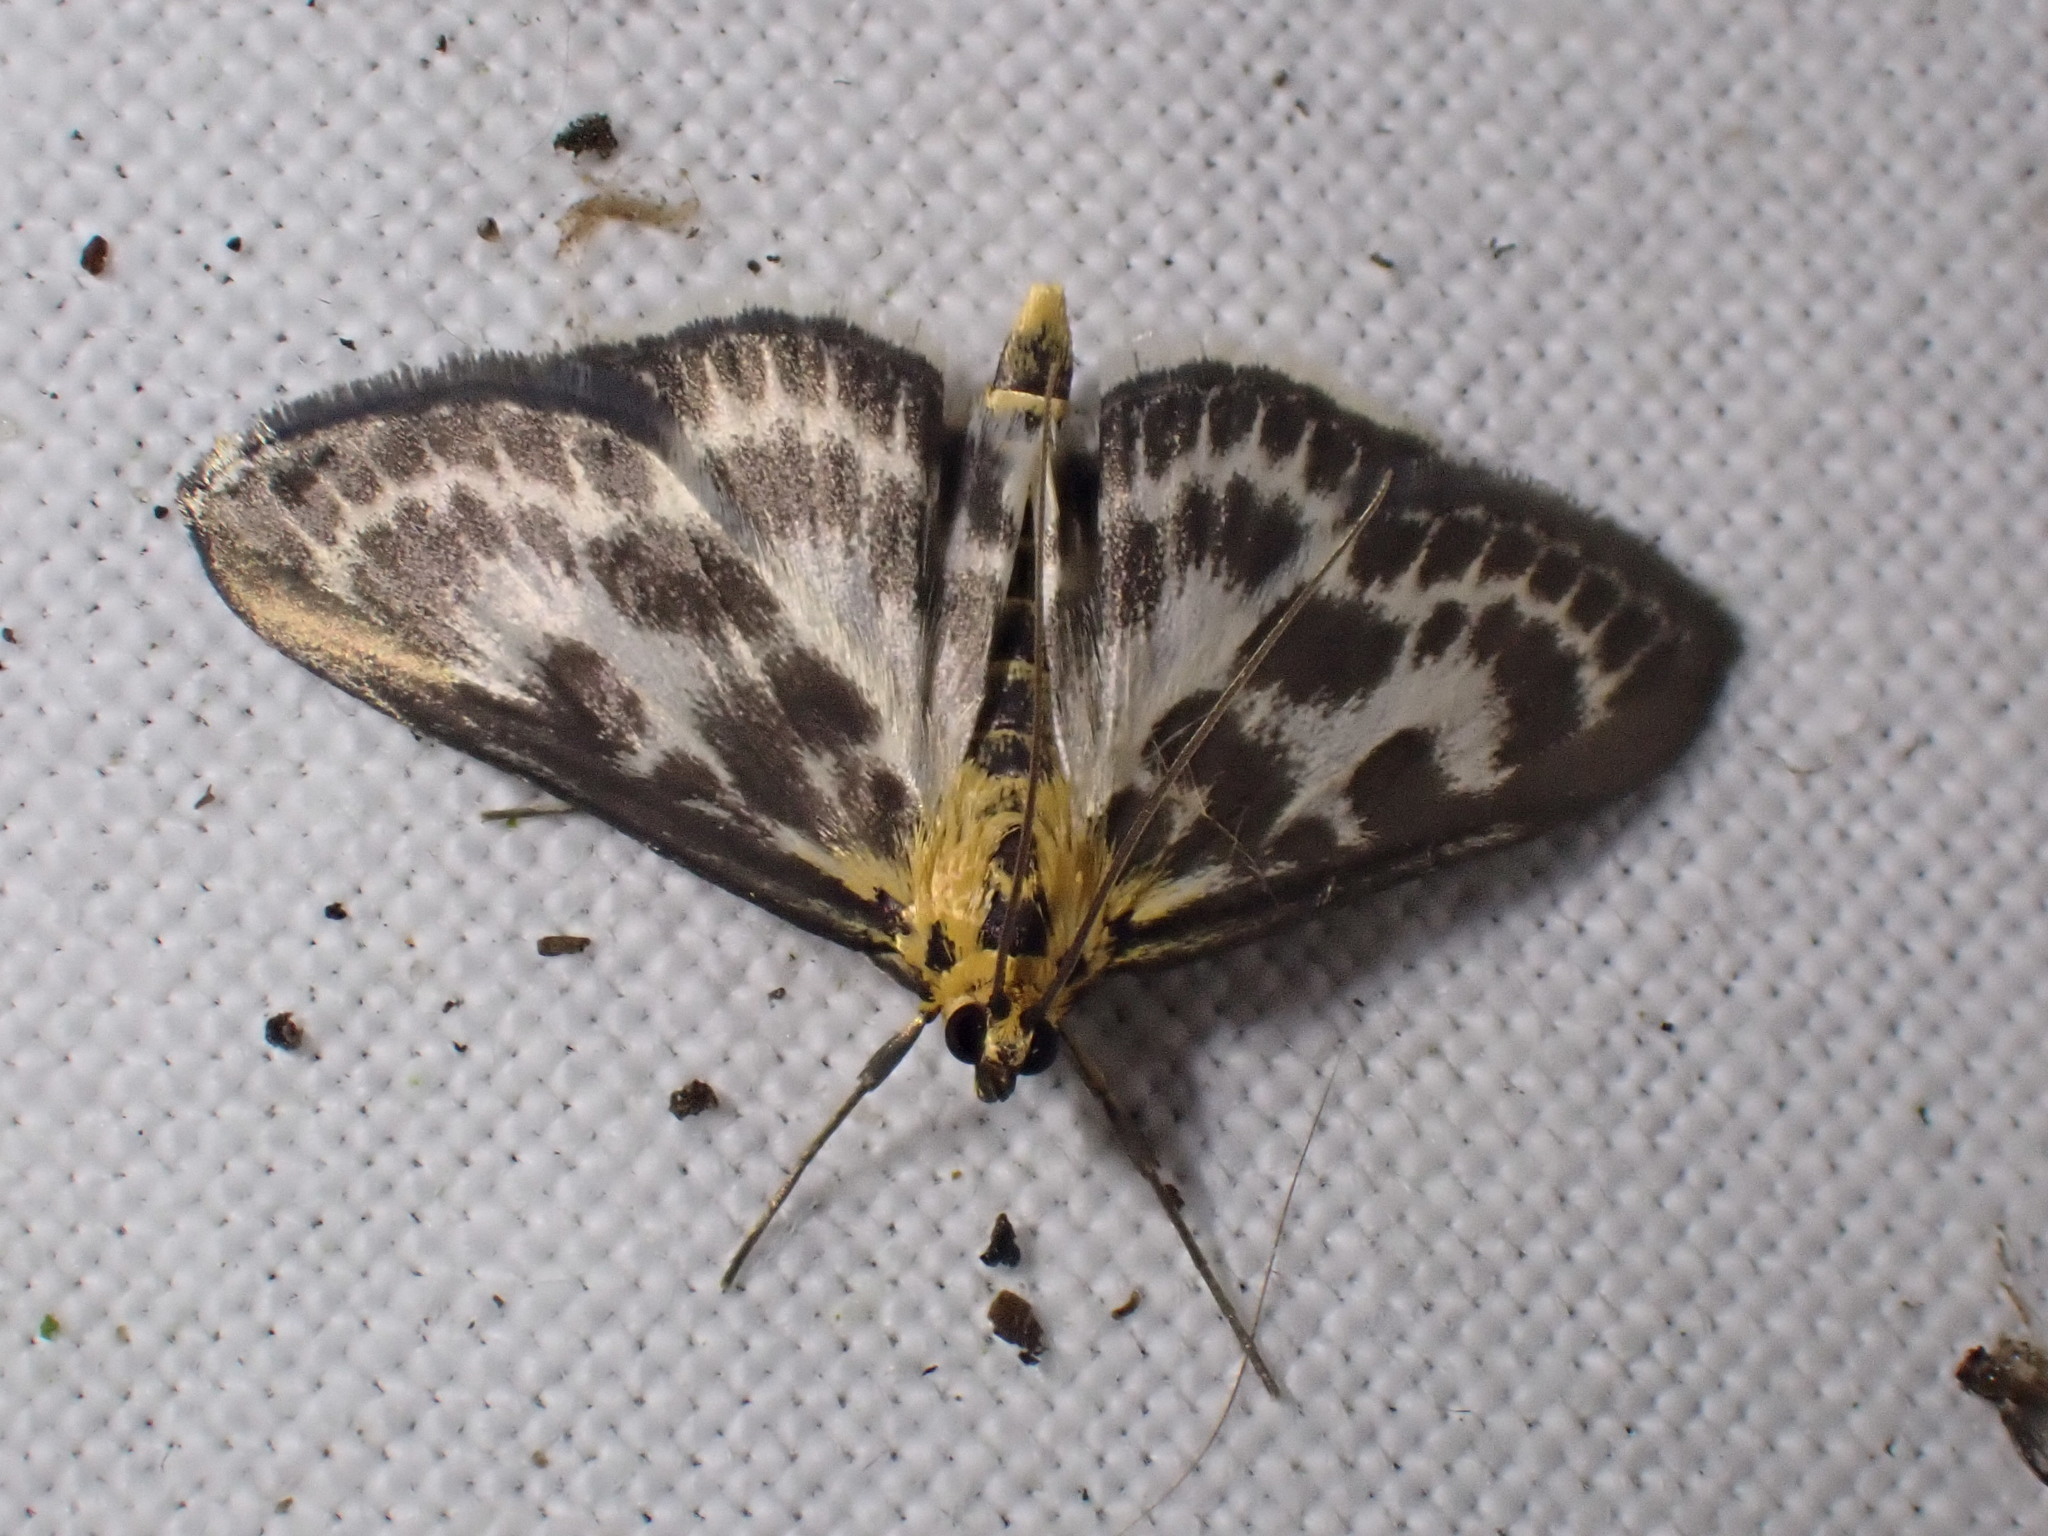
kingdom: Animalia
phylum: Arthropoda
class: Insecta
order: Lepidoptera
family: Crambidae
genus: Anania
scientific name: Anania hortulata
